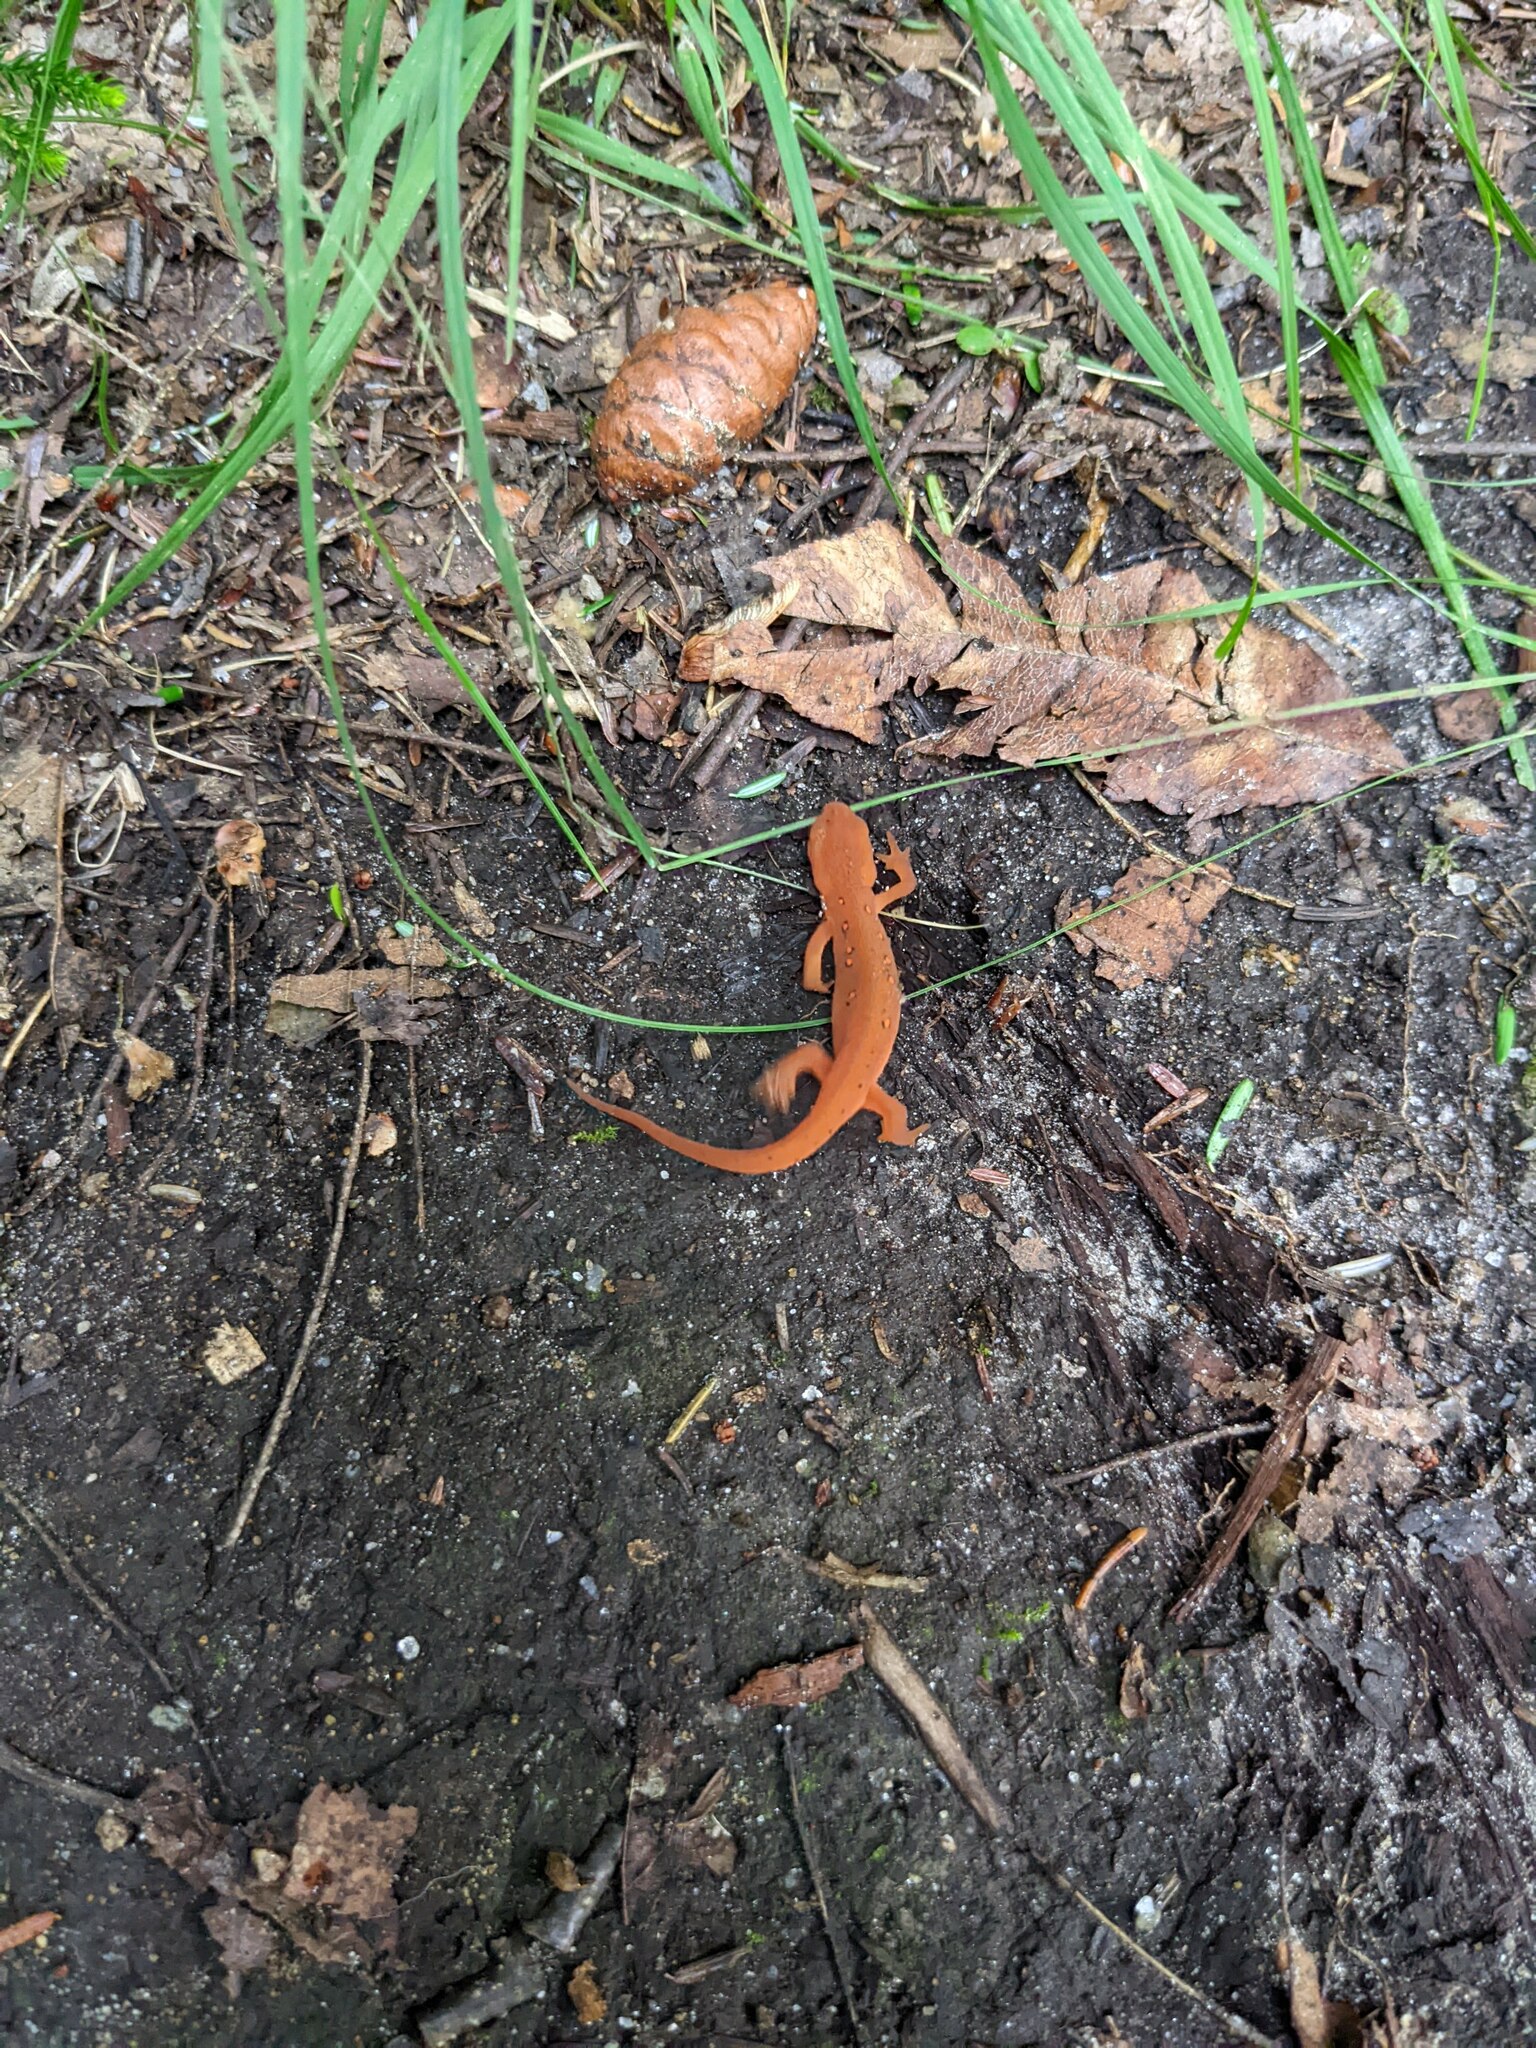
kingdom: Animalia
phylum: Chordata
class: Amphibia
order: Caudata
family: Salamandridae
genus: Notophthalmus
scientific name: Notophthalmus viridescens
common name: Eastern newt
